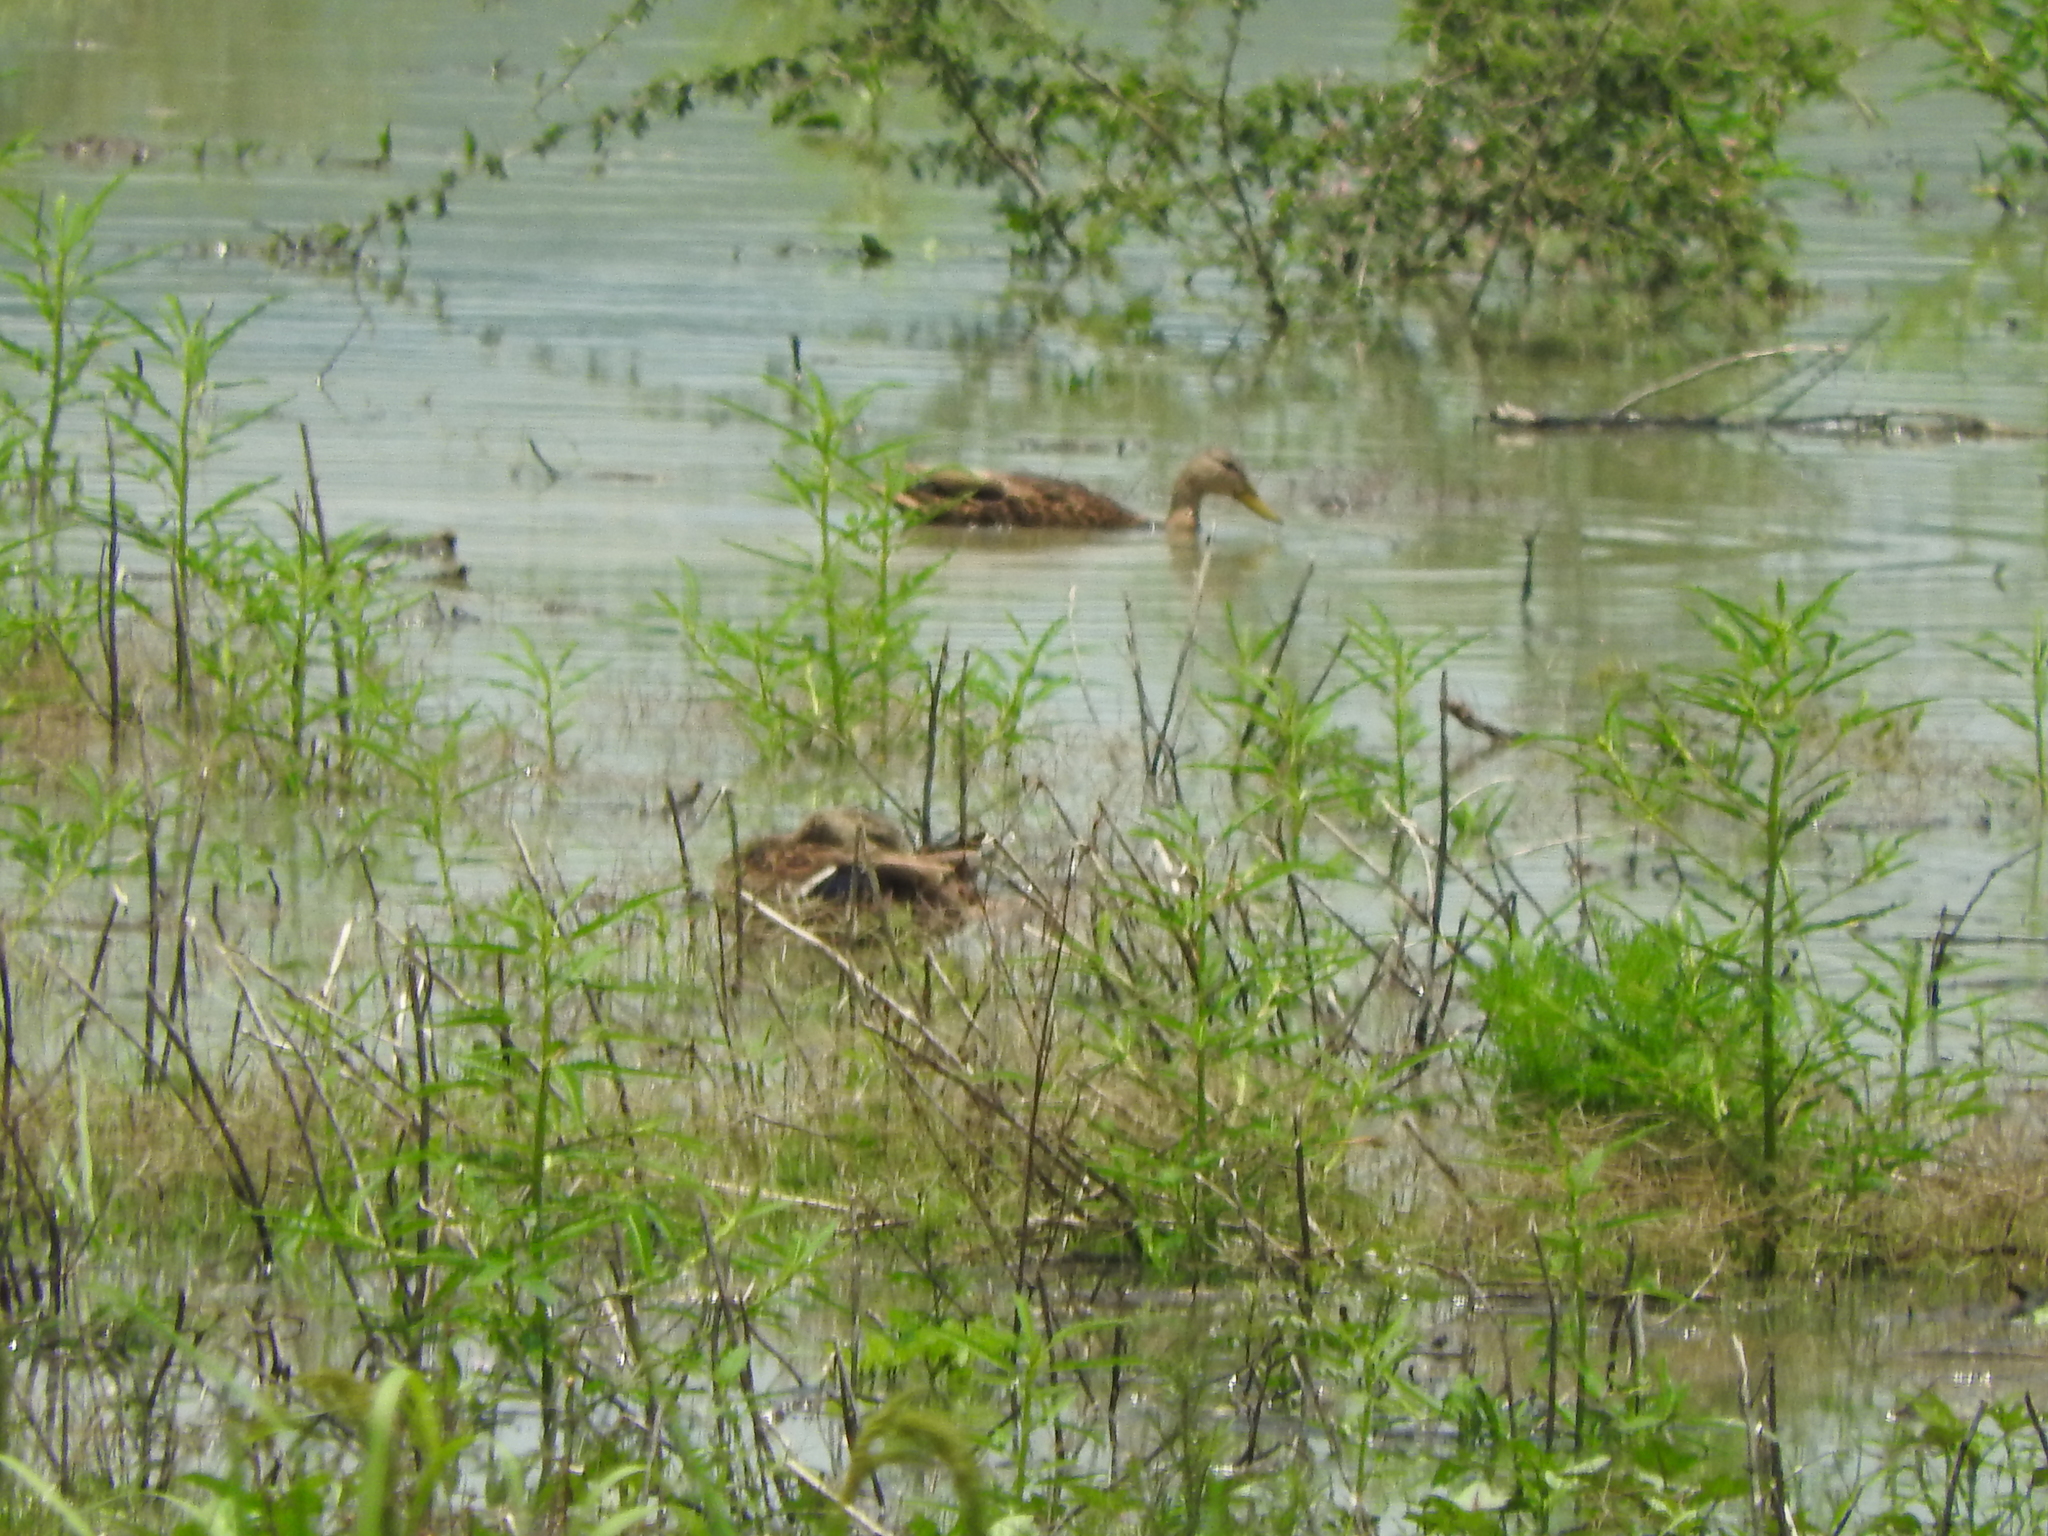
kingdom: Animalia
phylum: Chordata
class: Aves
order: Anseriformes
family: Anatidae
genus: Anas
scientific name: Anas diazi
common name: Mexican duck
